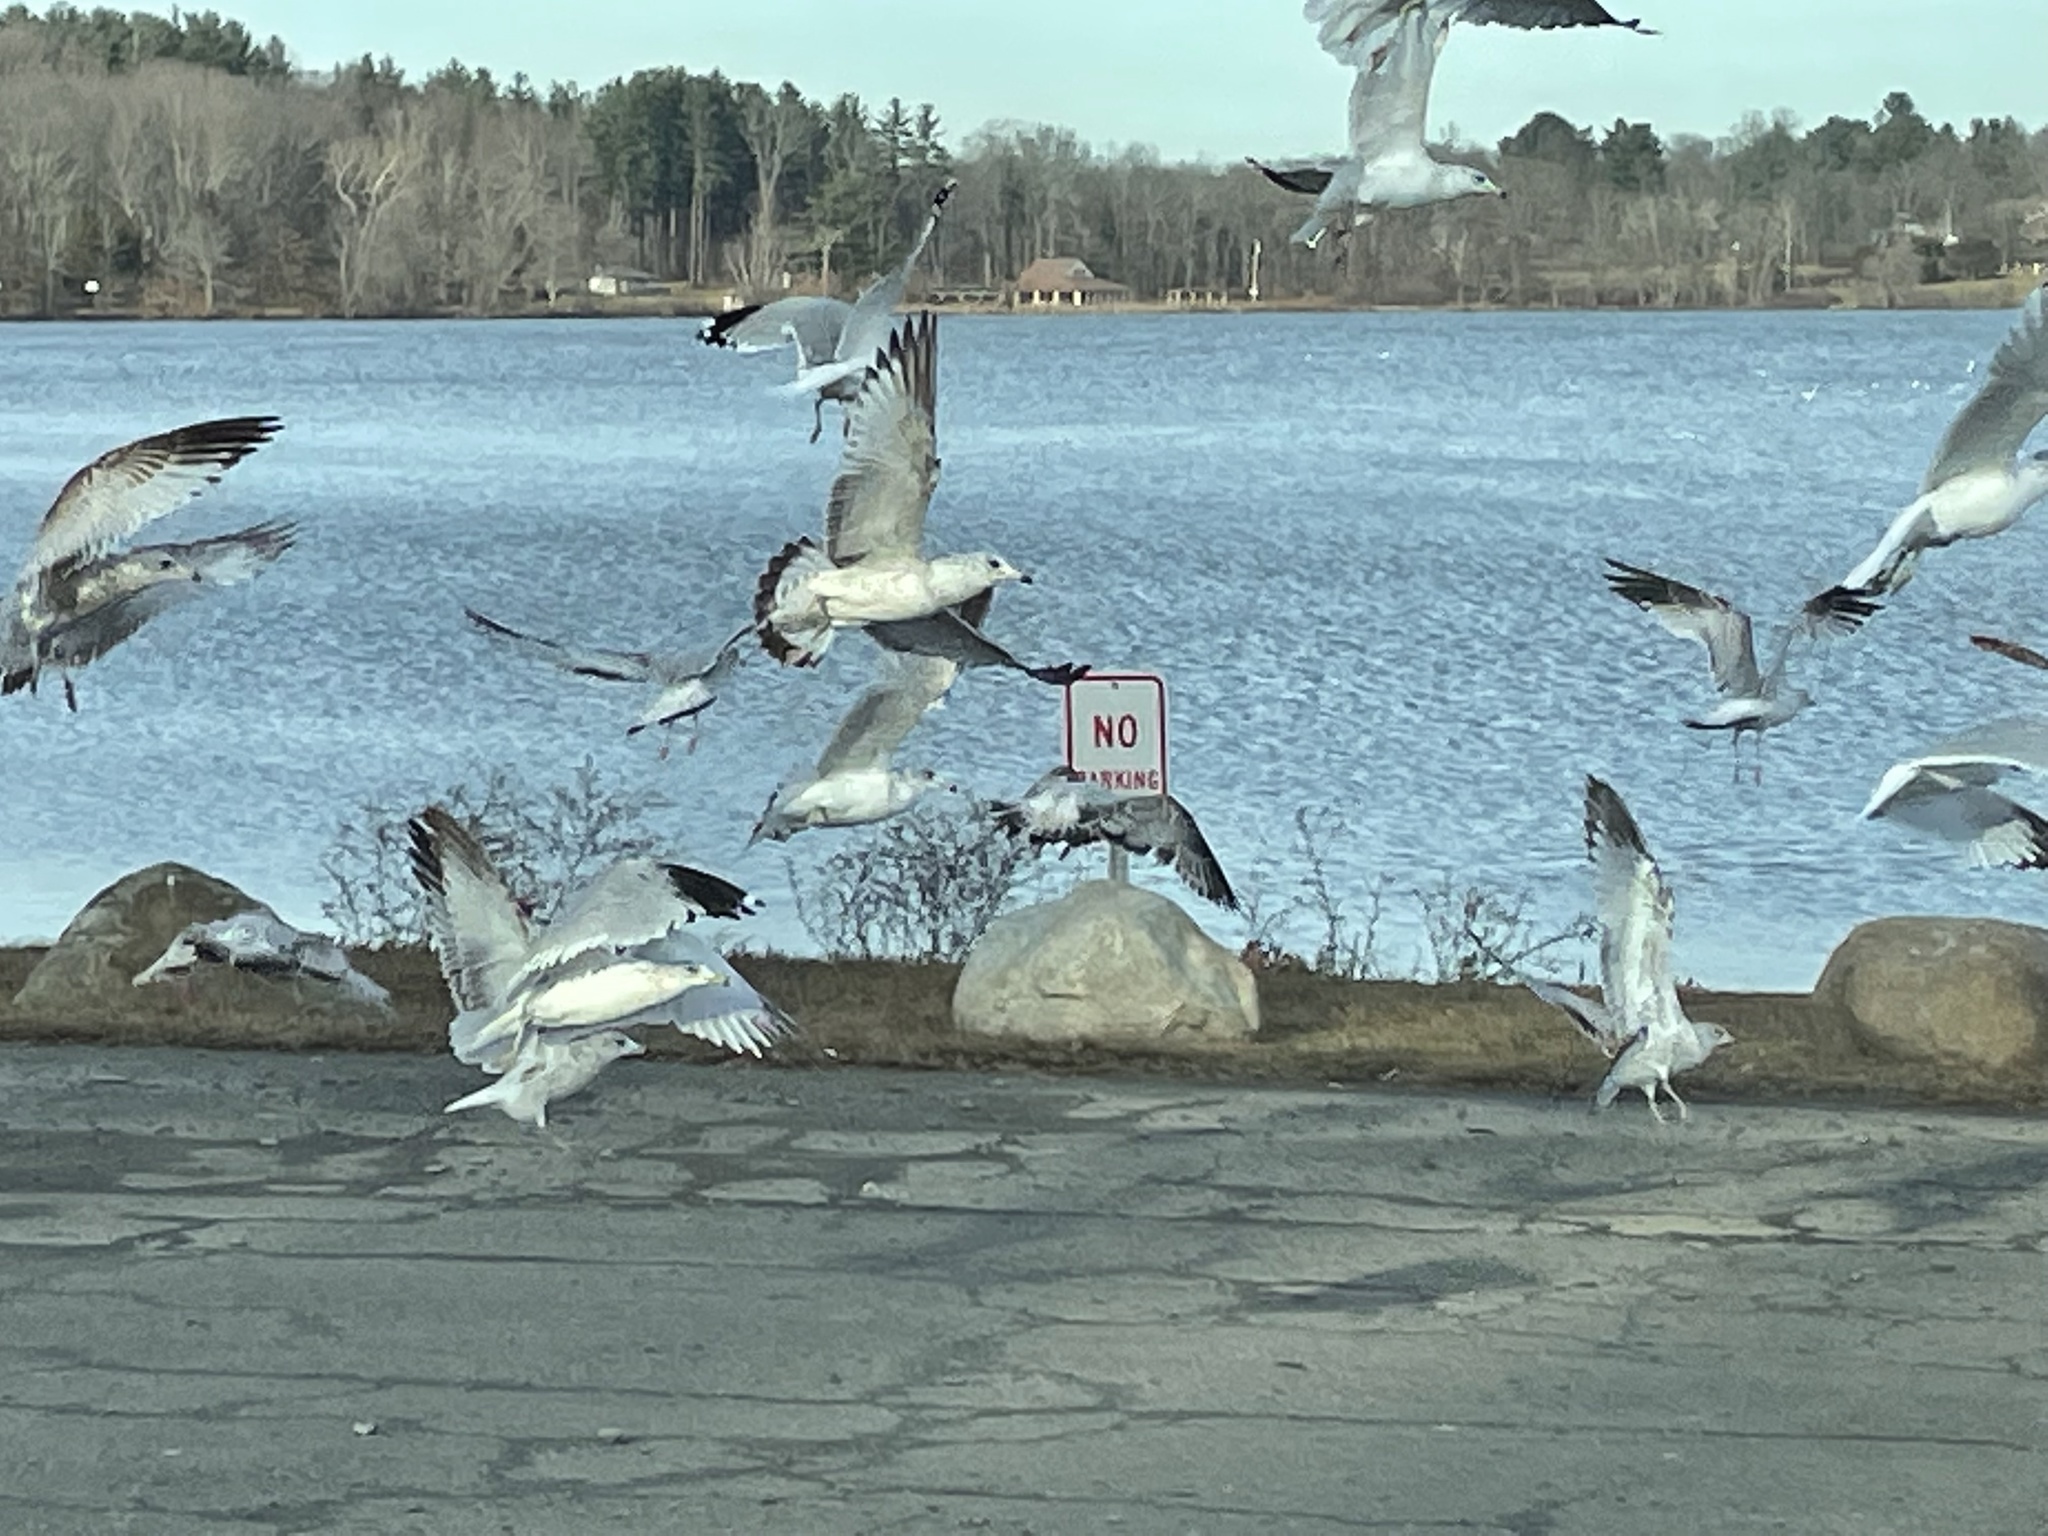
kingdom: Animalia
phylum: Chordata
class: Aves
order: Charadriiformes
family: Laridae
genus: Larus
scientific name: Larus delawarensis
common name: Ring-billed gull
